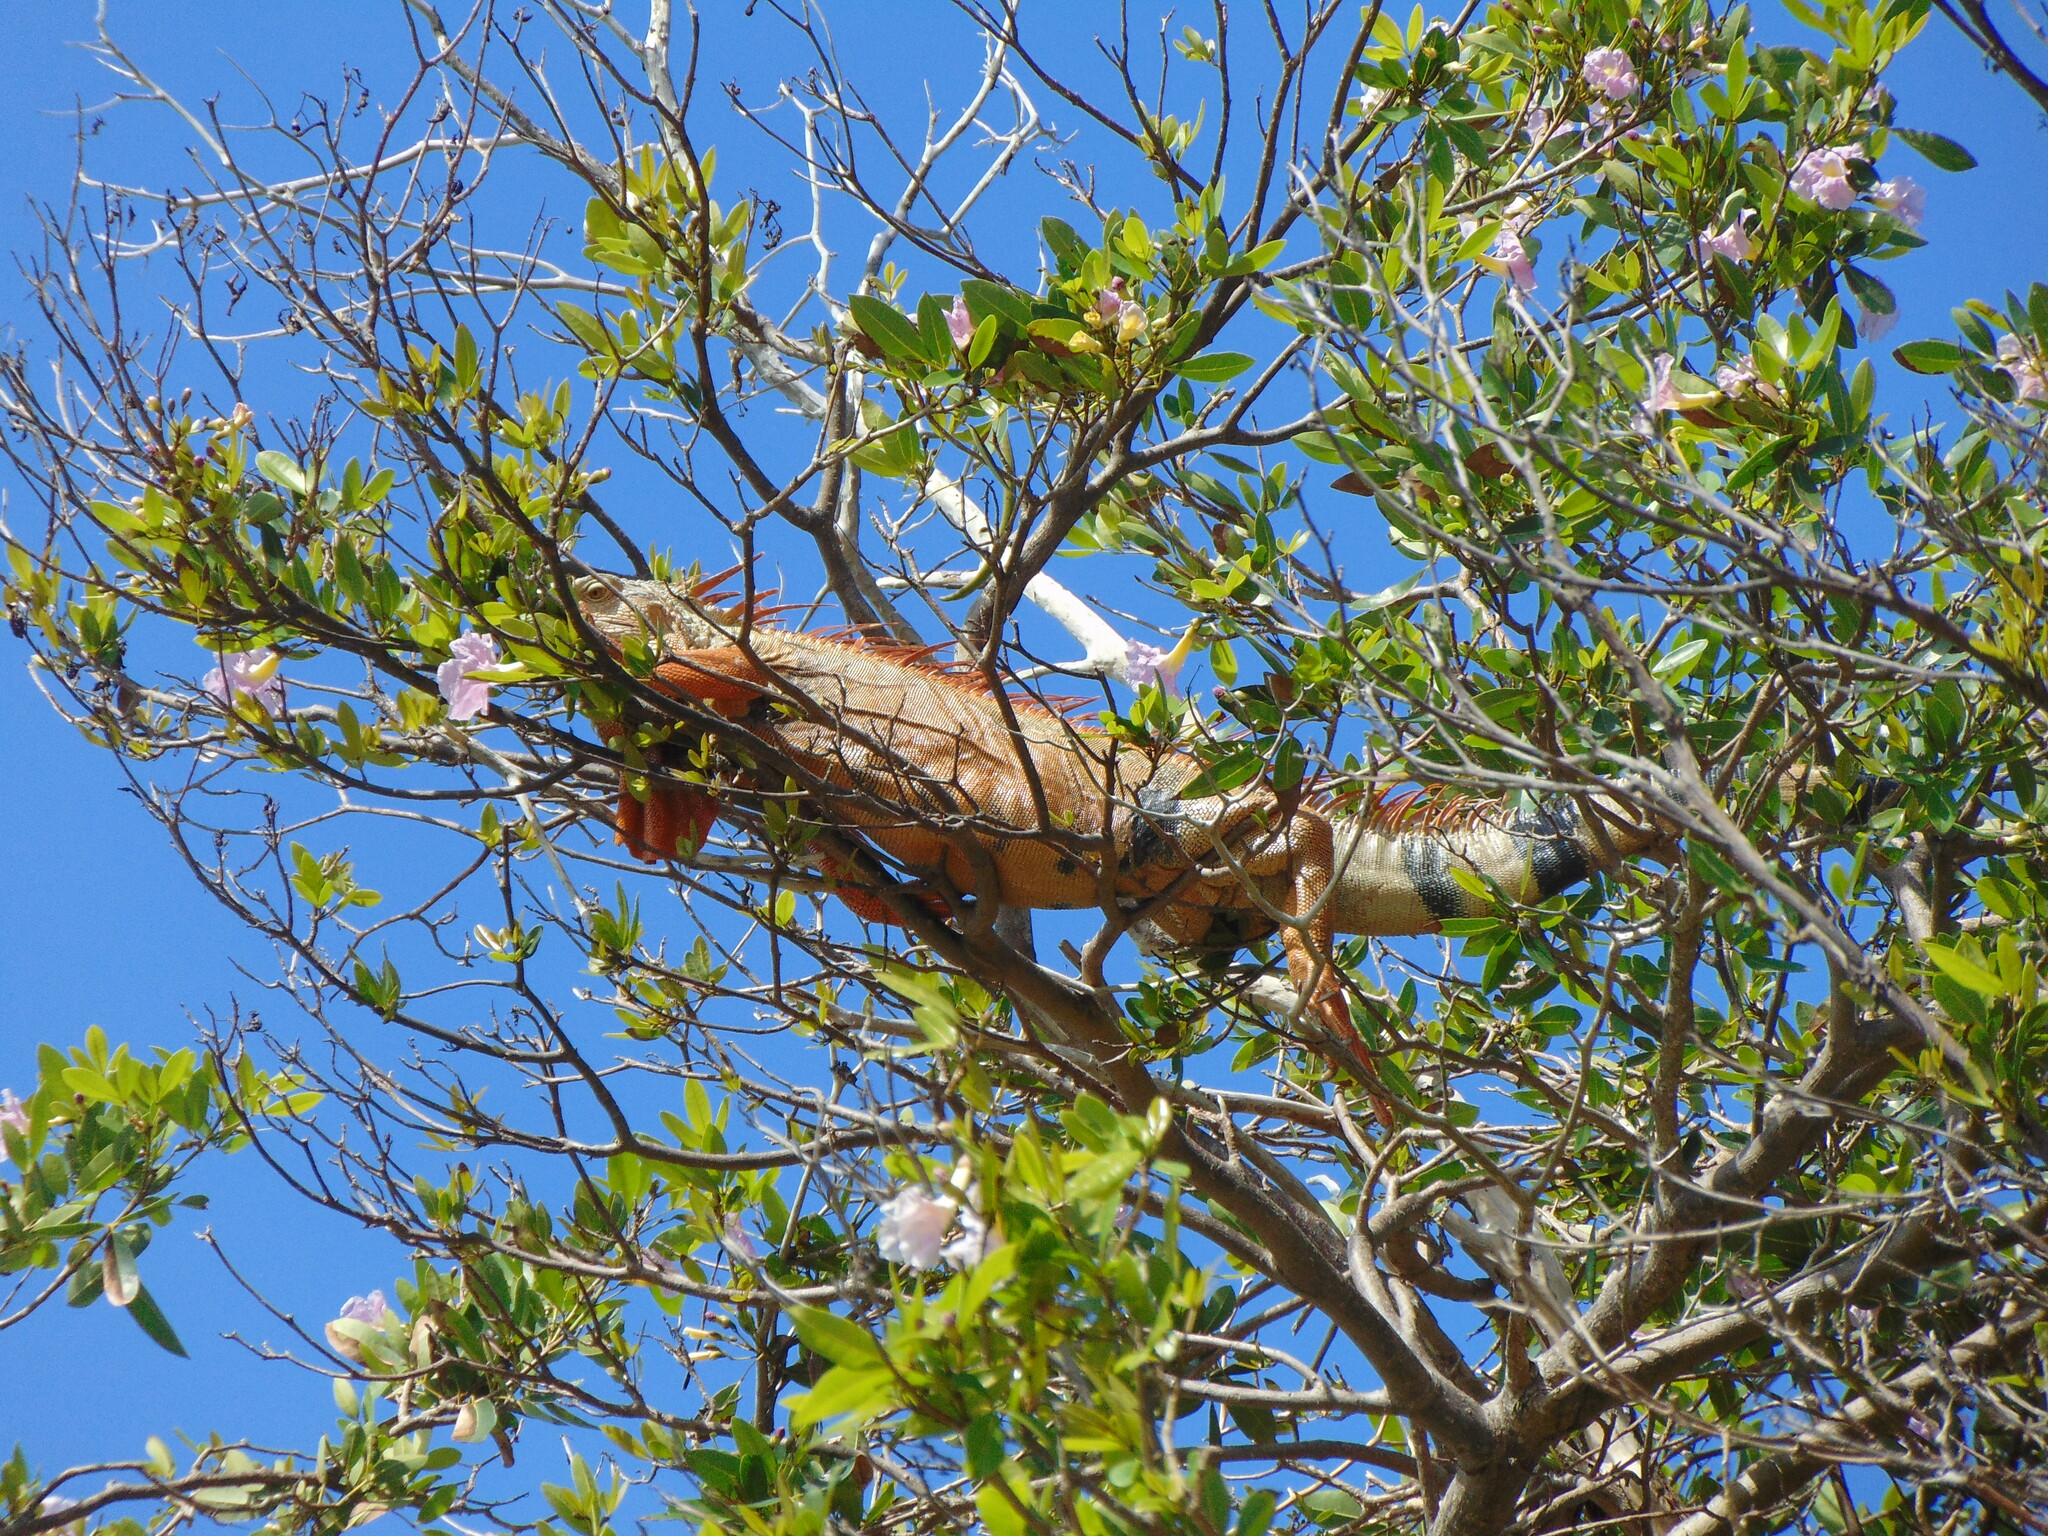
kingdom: Animalia
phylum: Chordata
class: Squamata
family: Iguanidae
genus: Iguana
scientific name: Iguana iguana
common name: Green iguana
